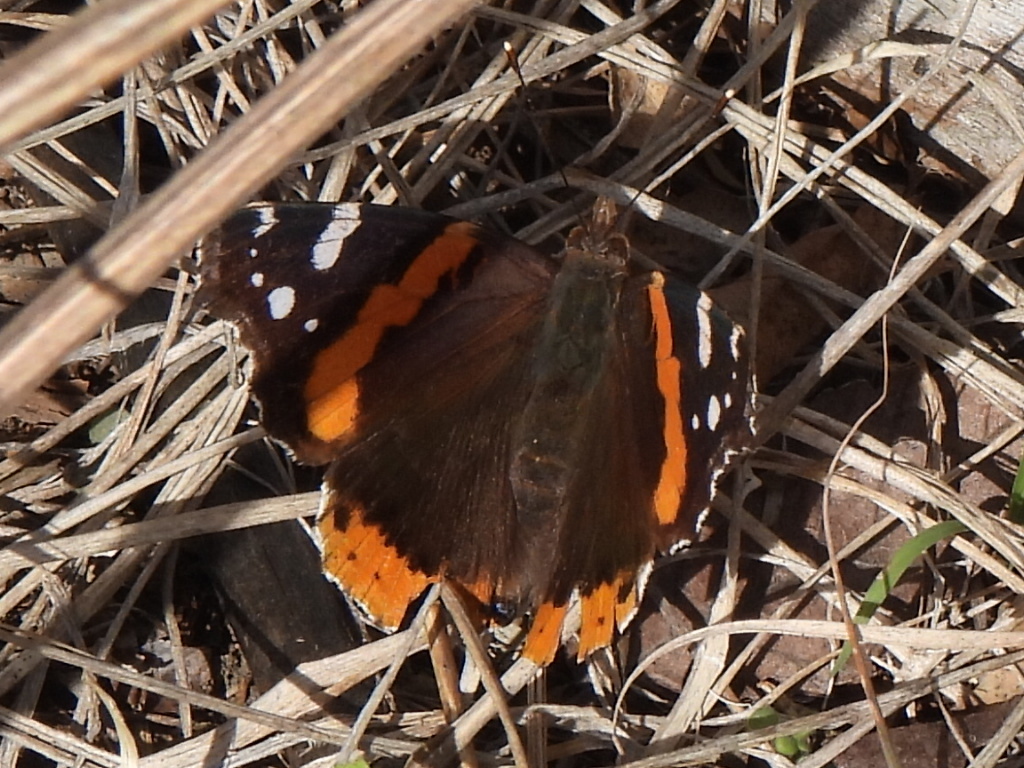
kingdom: Animalia
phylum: Arthropoda
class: Insecta
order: Lepidoptera
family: Nymphalidae
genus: Vanessa
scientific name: Vanessa atalanta
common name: Red admiral
